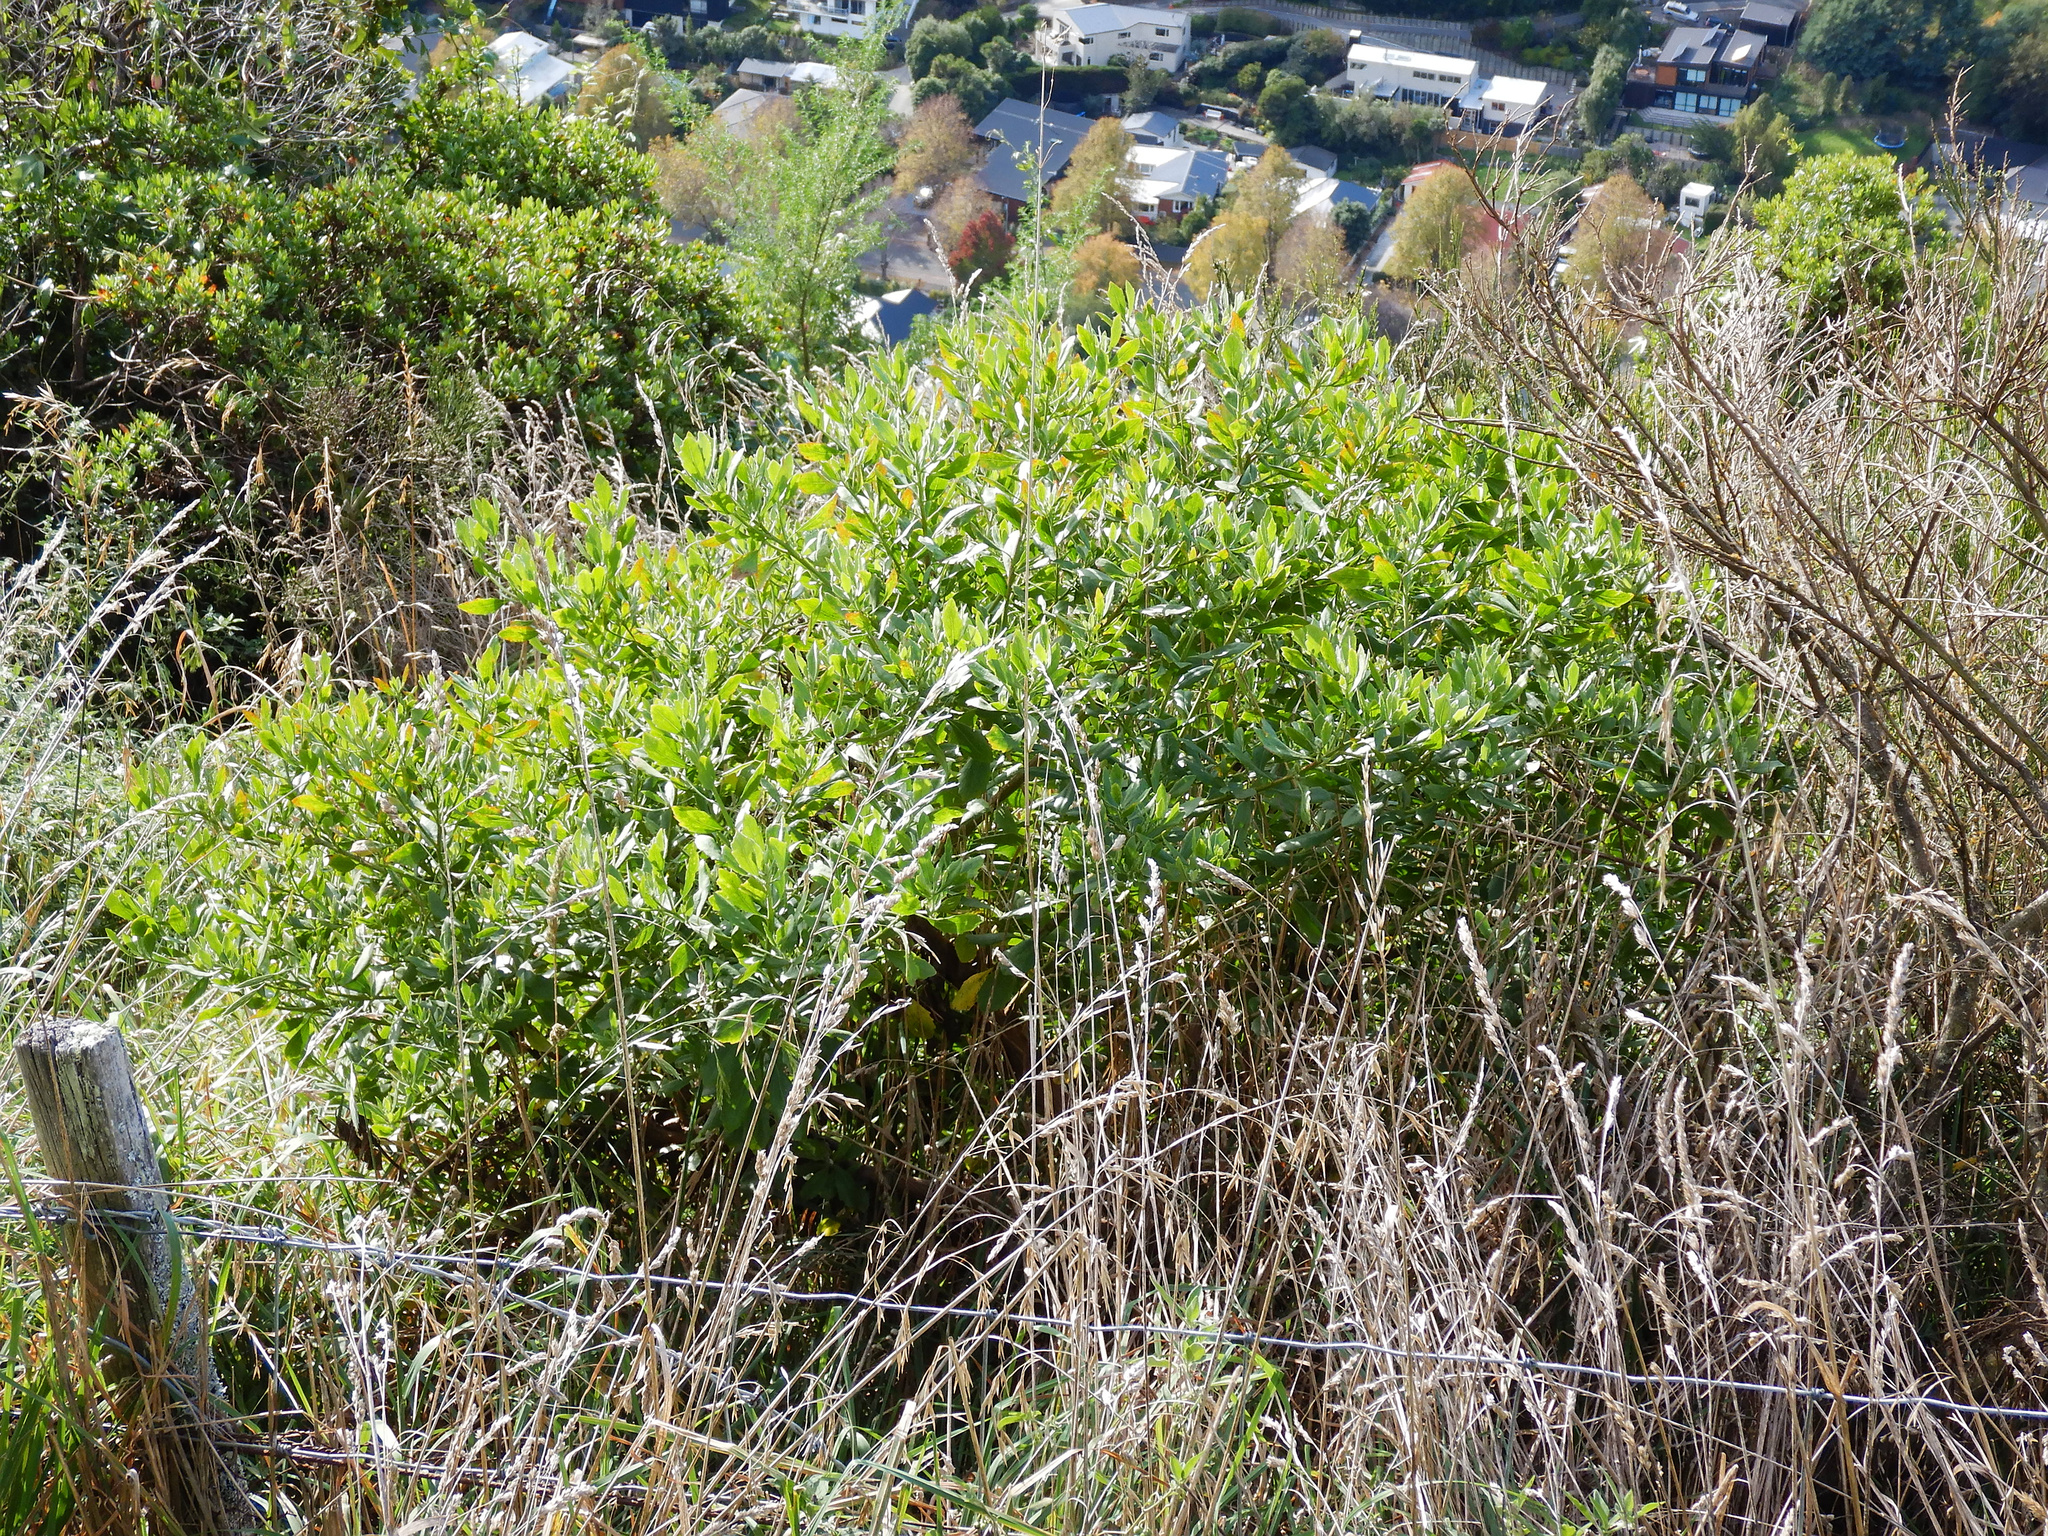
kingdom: Plantae
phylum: Tracheophyta
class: Magnoliopsida
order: Asterales
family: Asteraceae
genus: Osteospermum
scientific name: Osteospermum moniliferum
